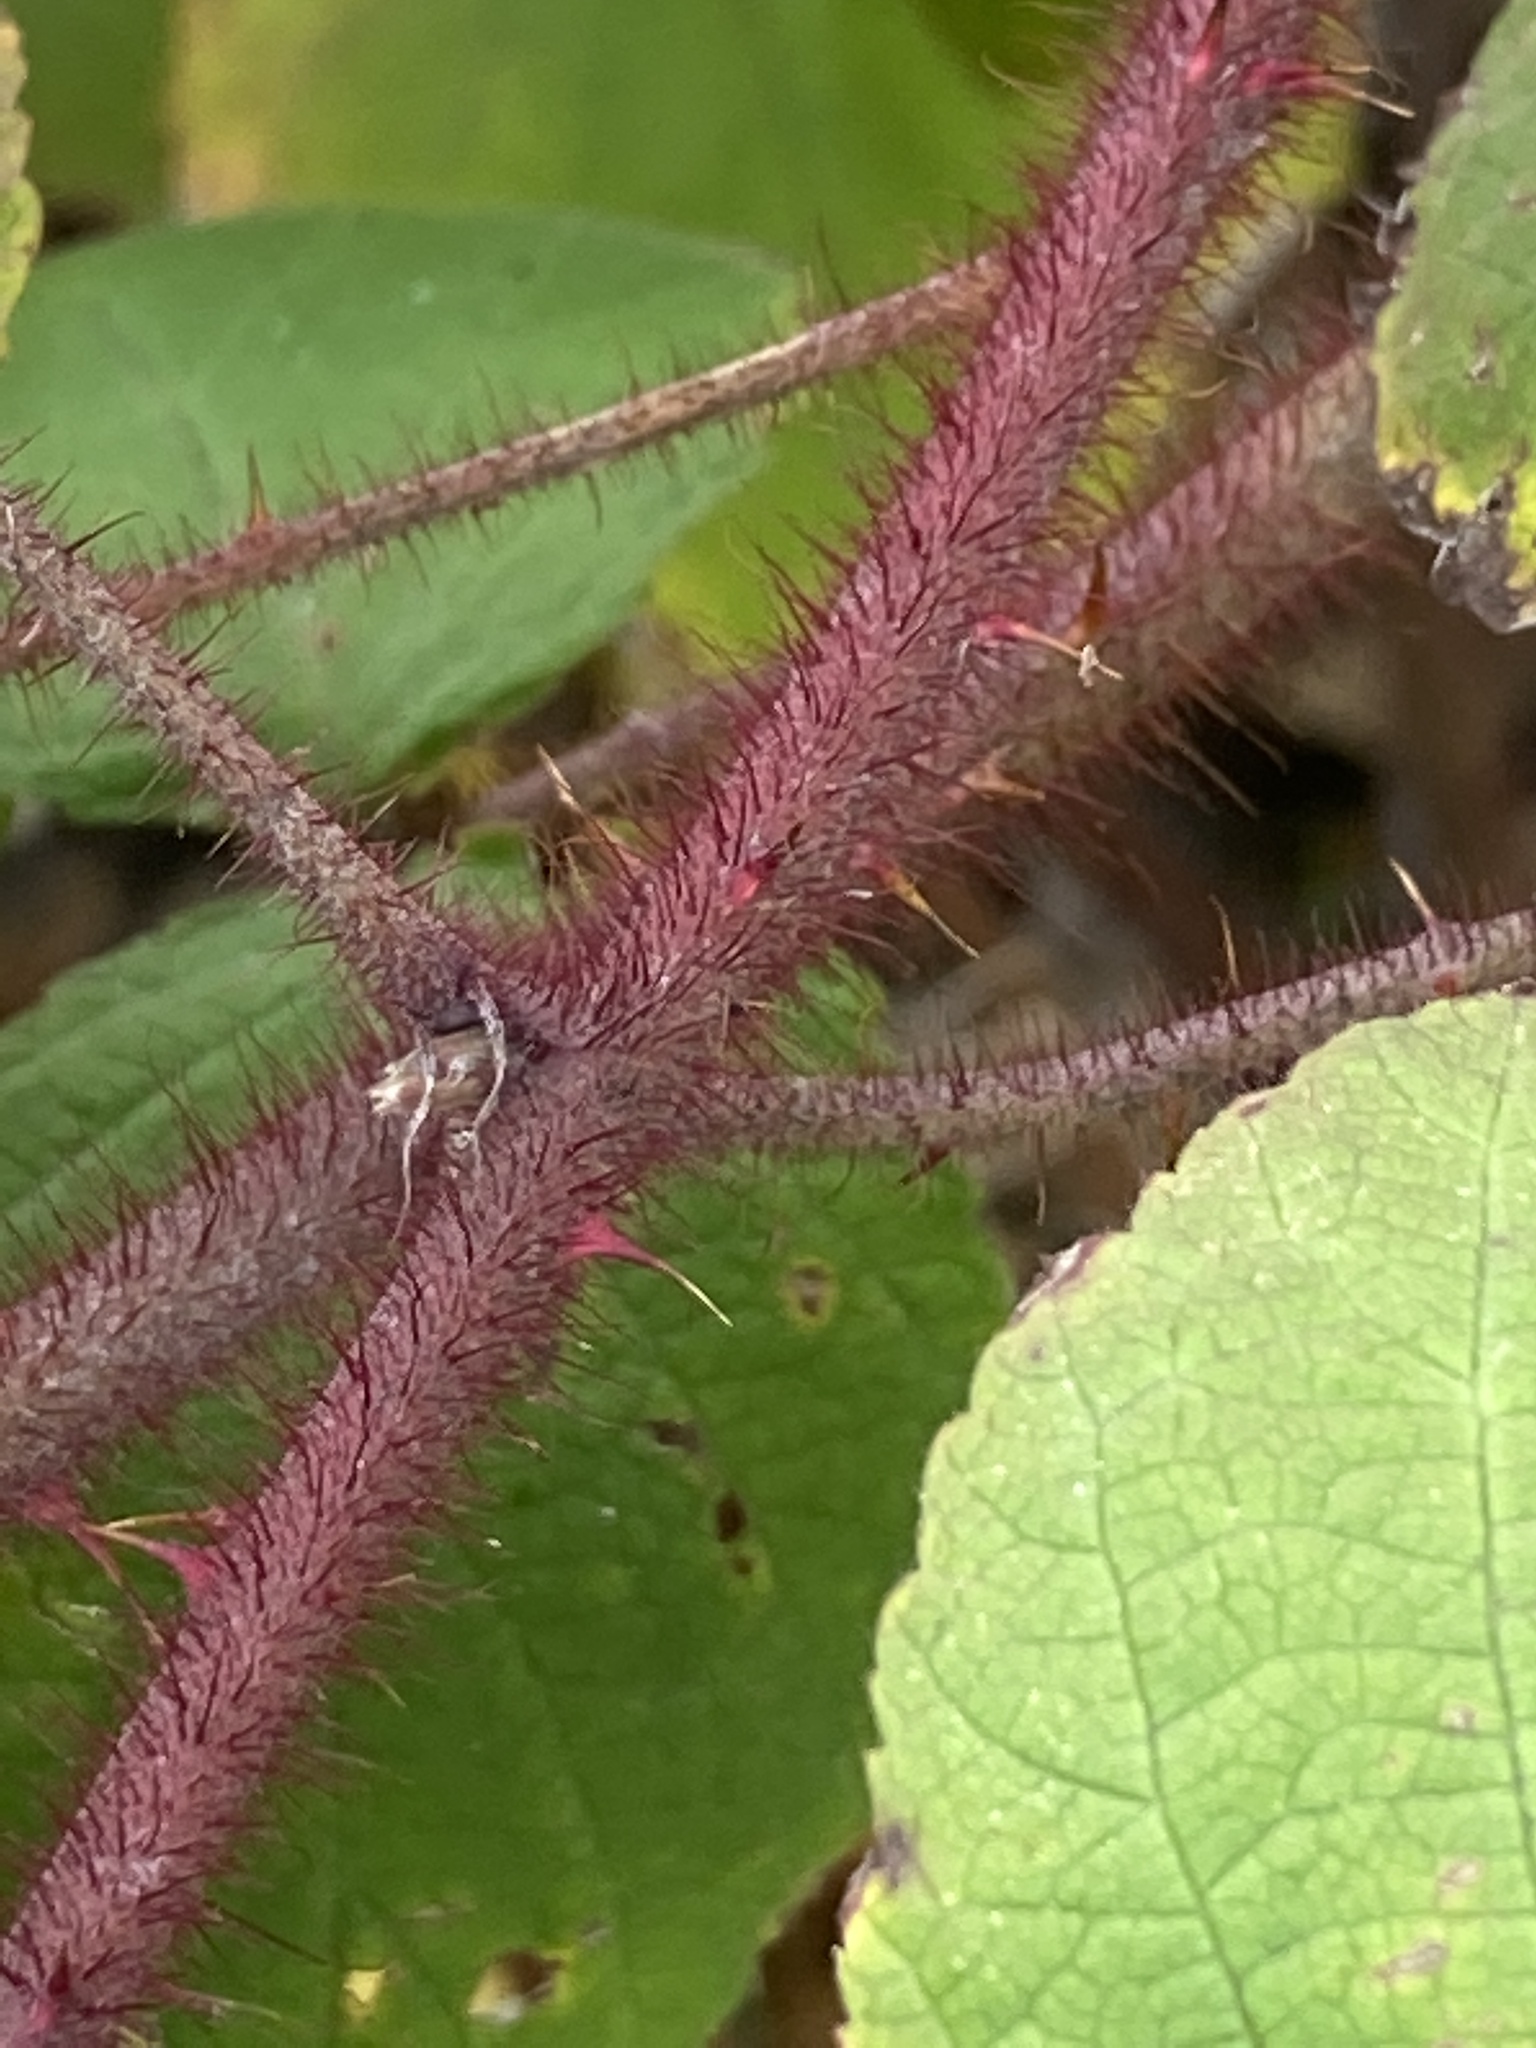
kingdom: Plantae
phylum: Tracheophyta
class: Magnoliopsida
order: Rosales
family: Rosaceae
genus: Rubus
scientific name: Rubus phoenicolasius
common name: Japanese wineberry
